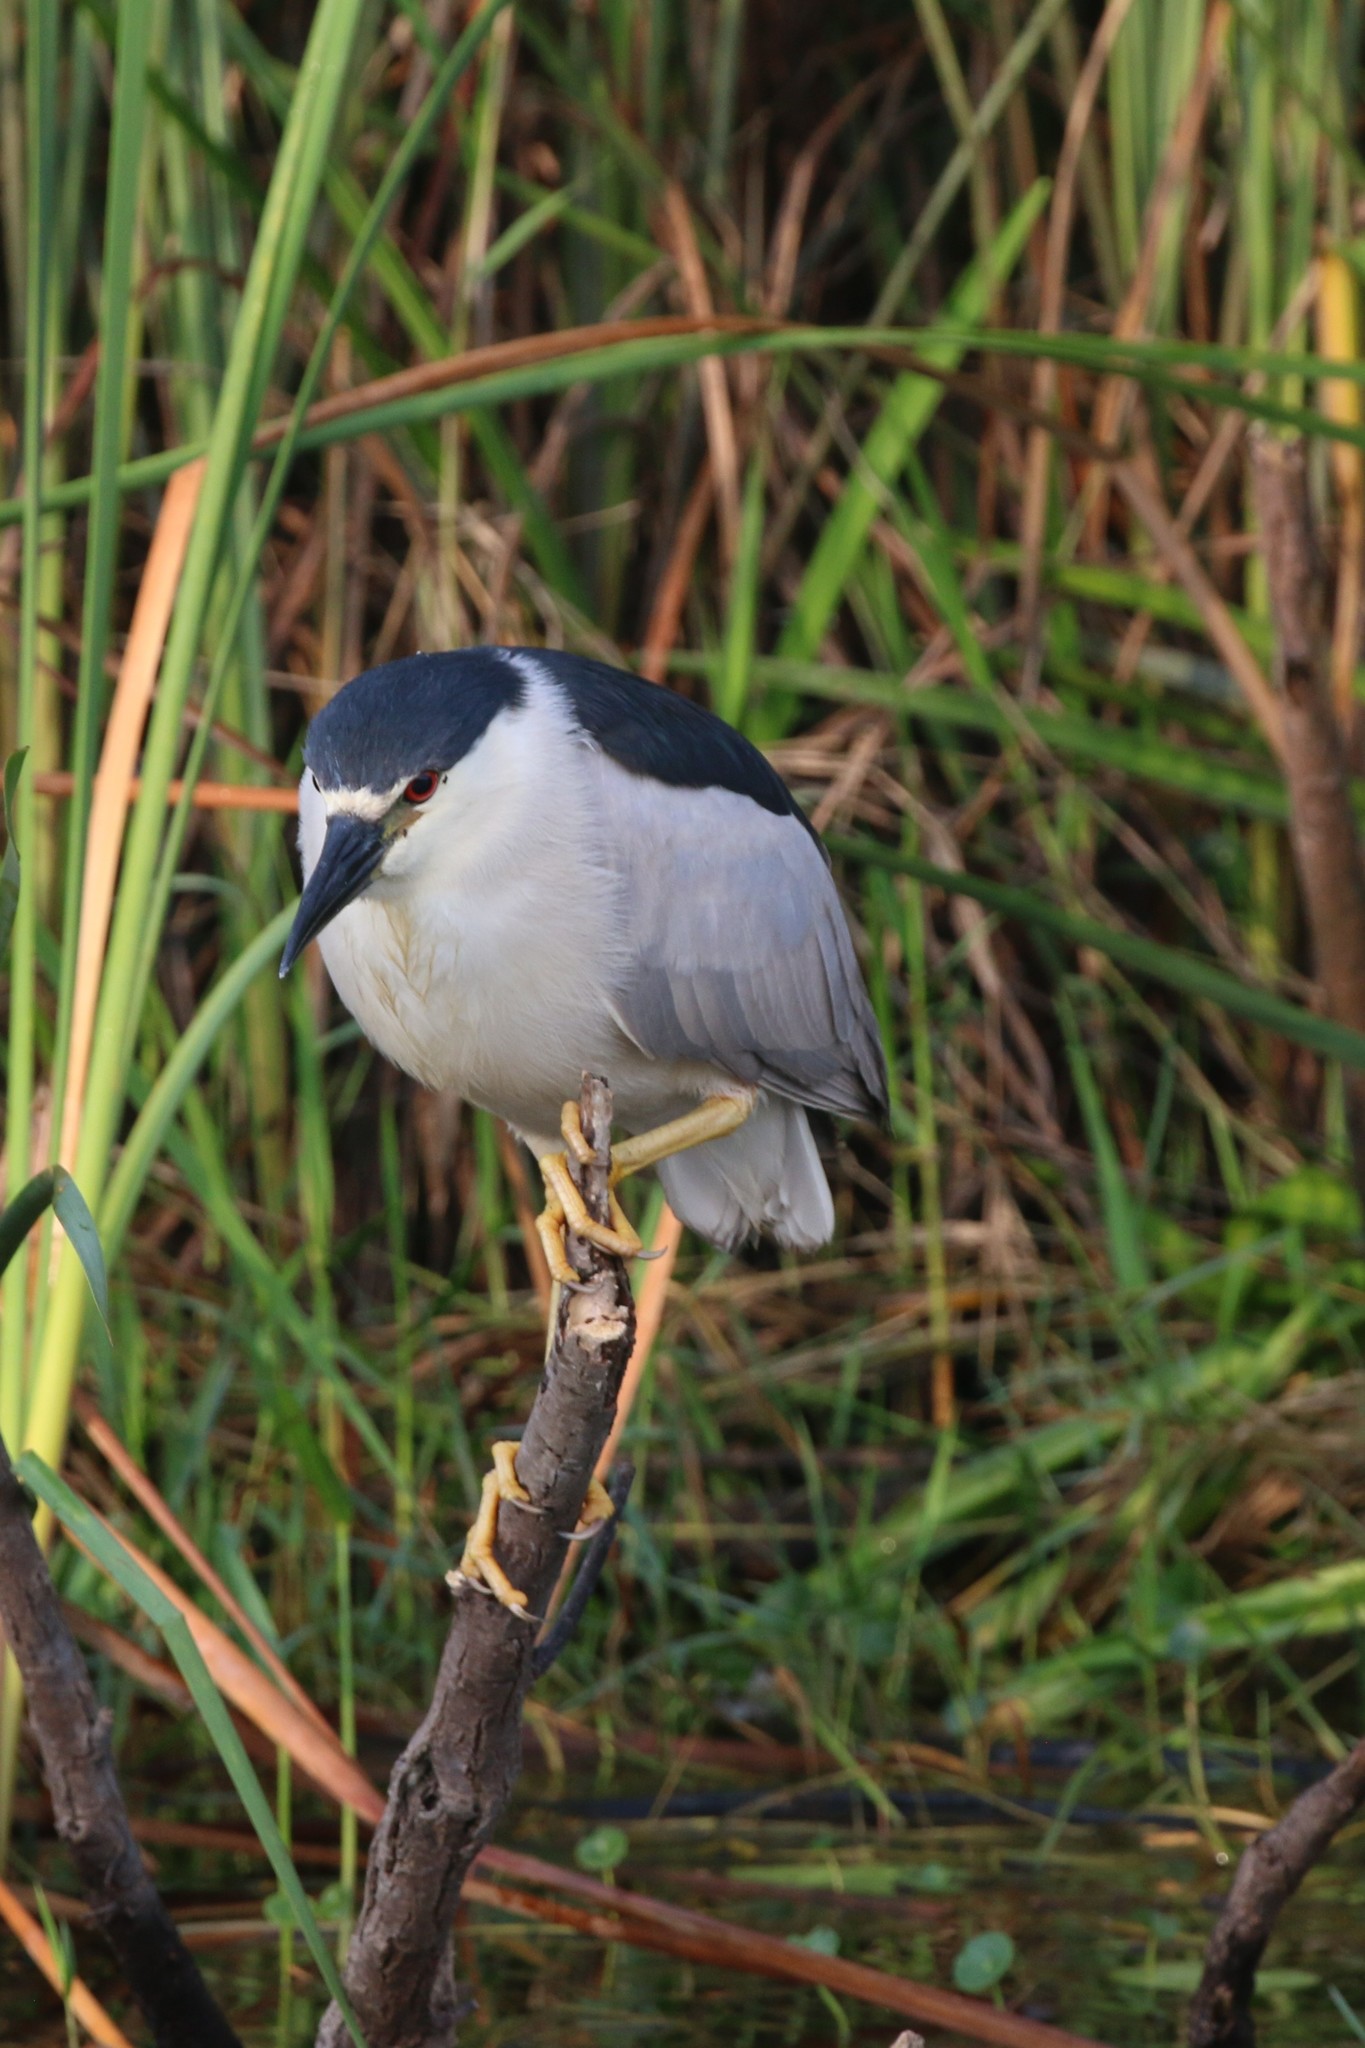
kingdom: Animalia
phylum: Chordata
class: Aves
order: Pelecaniformes
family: Ardeidae
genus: Nycticorax
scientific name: Nycticorax nycticorax
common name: Black-crowned night heron
